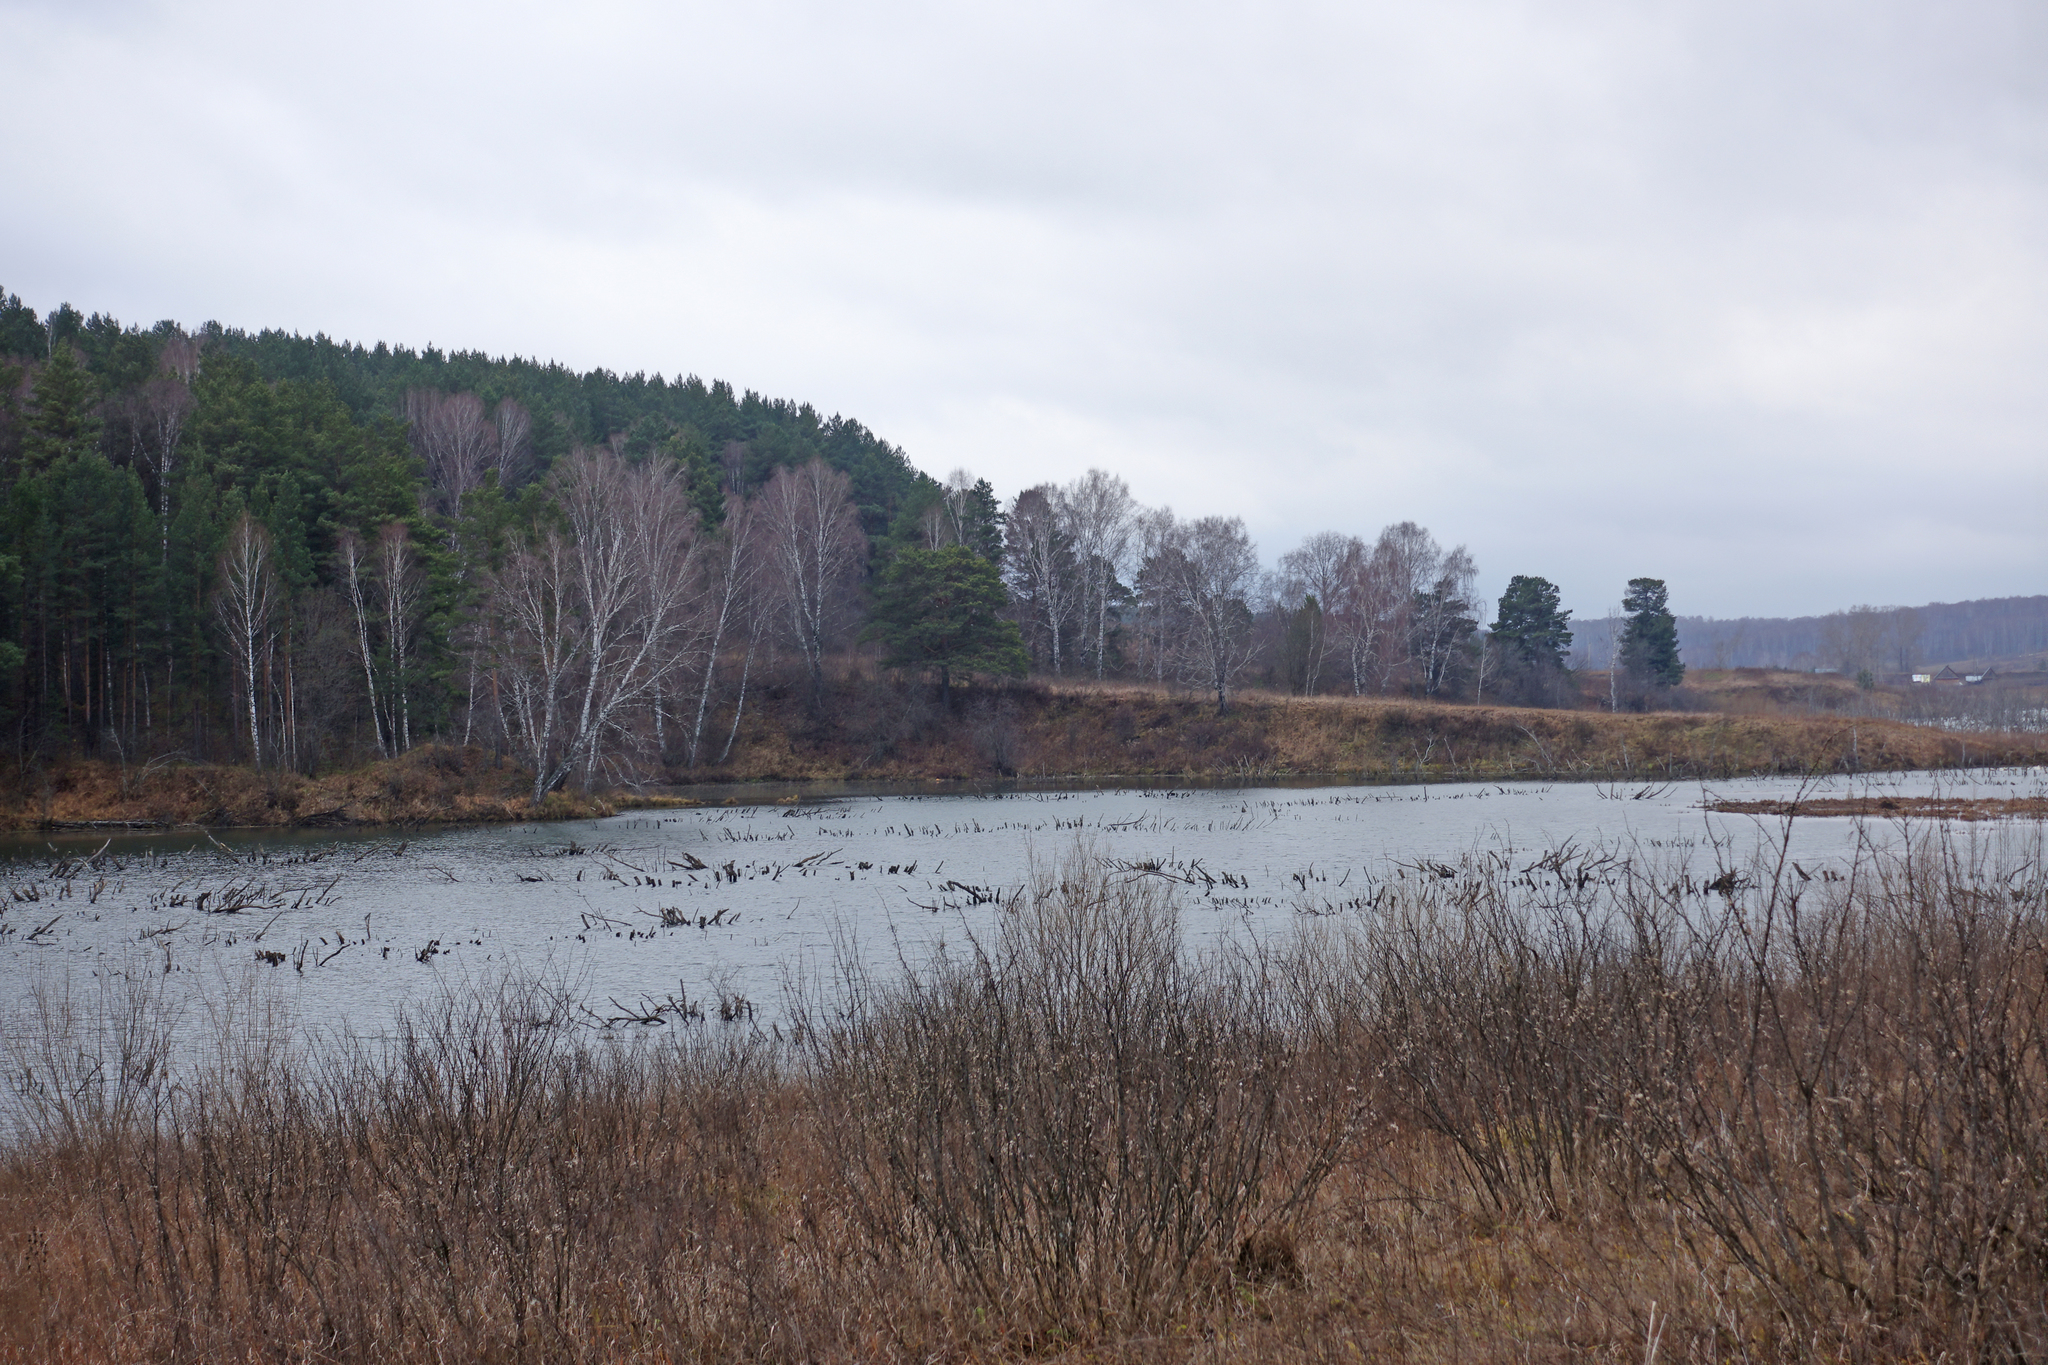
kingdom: Plantae
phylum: Tracheophyta
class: Pinopsida
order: Pinales
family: Pinaceae
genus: Pinus
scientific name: Pinus sylvestris
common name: Scots pine
